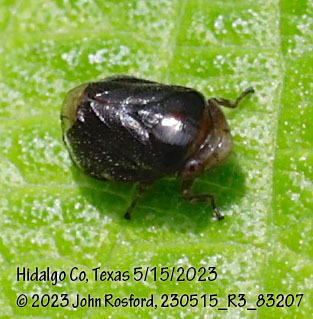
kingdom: Animalia
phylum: Arthropoda
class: Insecta
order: Hemiptera
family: Clastopteridae
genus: Clastoptera
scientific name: Clastoptera xanthocephala
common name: Sunflower spittlebug
